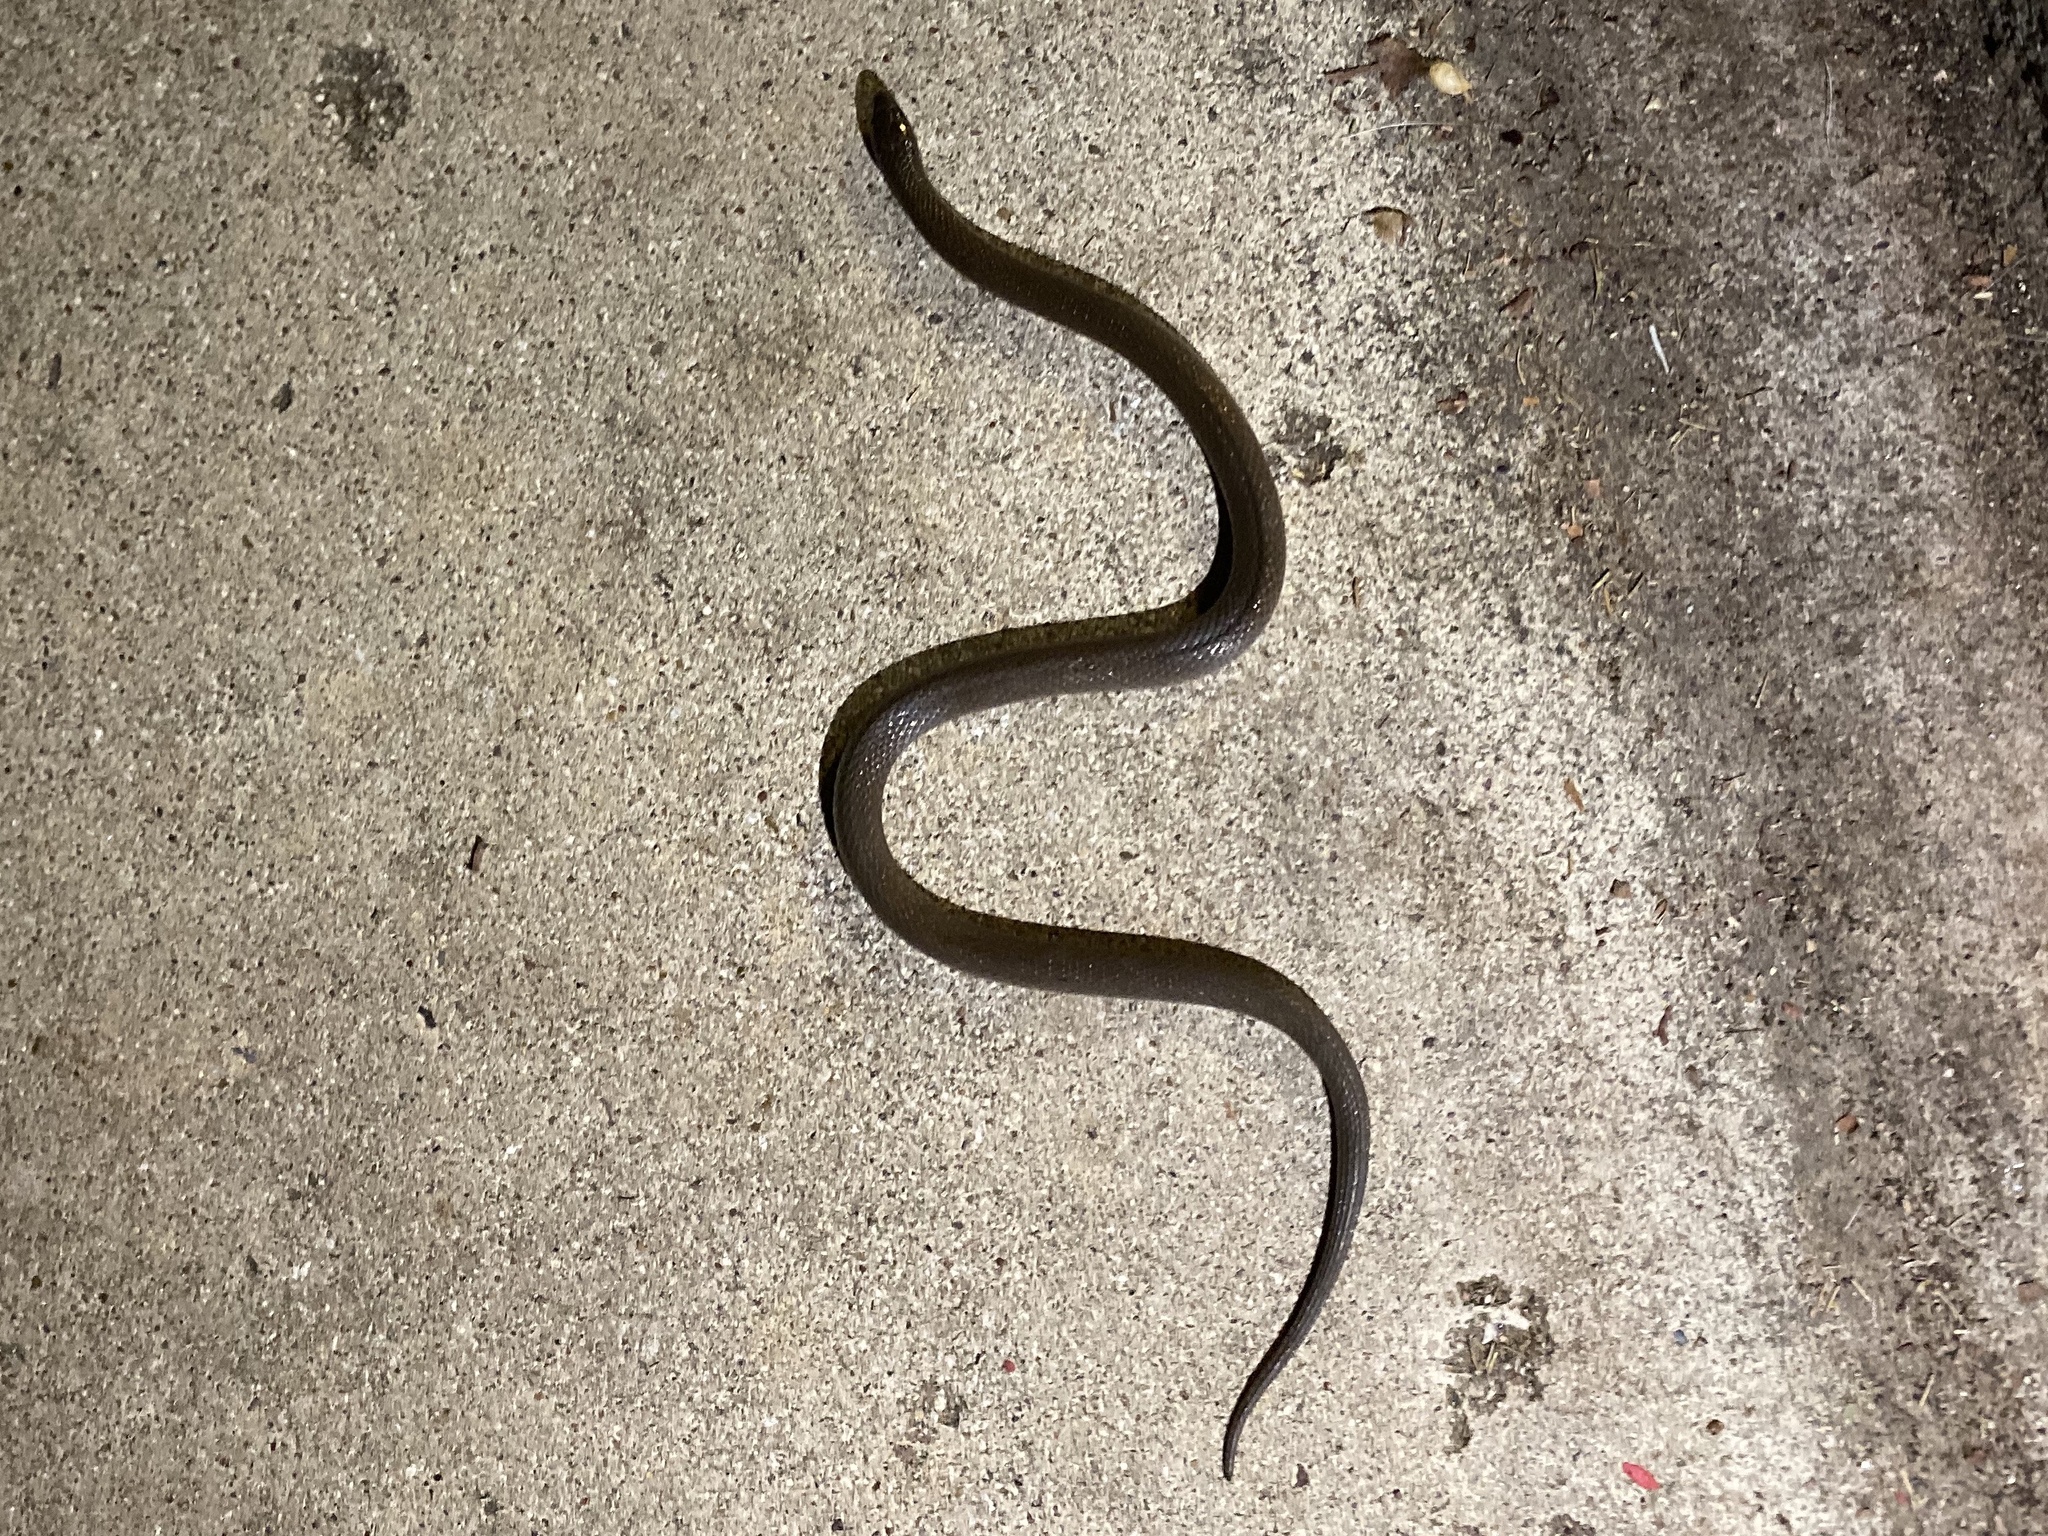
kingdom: Animalia
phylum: Chordata
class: Squamata
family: Colubridae
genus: Haldea
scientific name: Haldea striatula
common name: Rough earth snake
